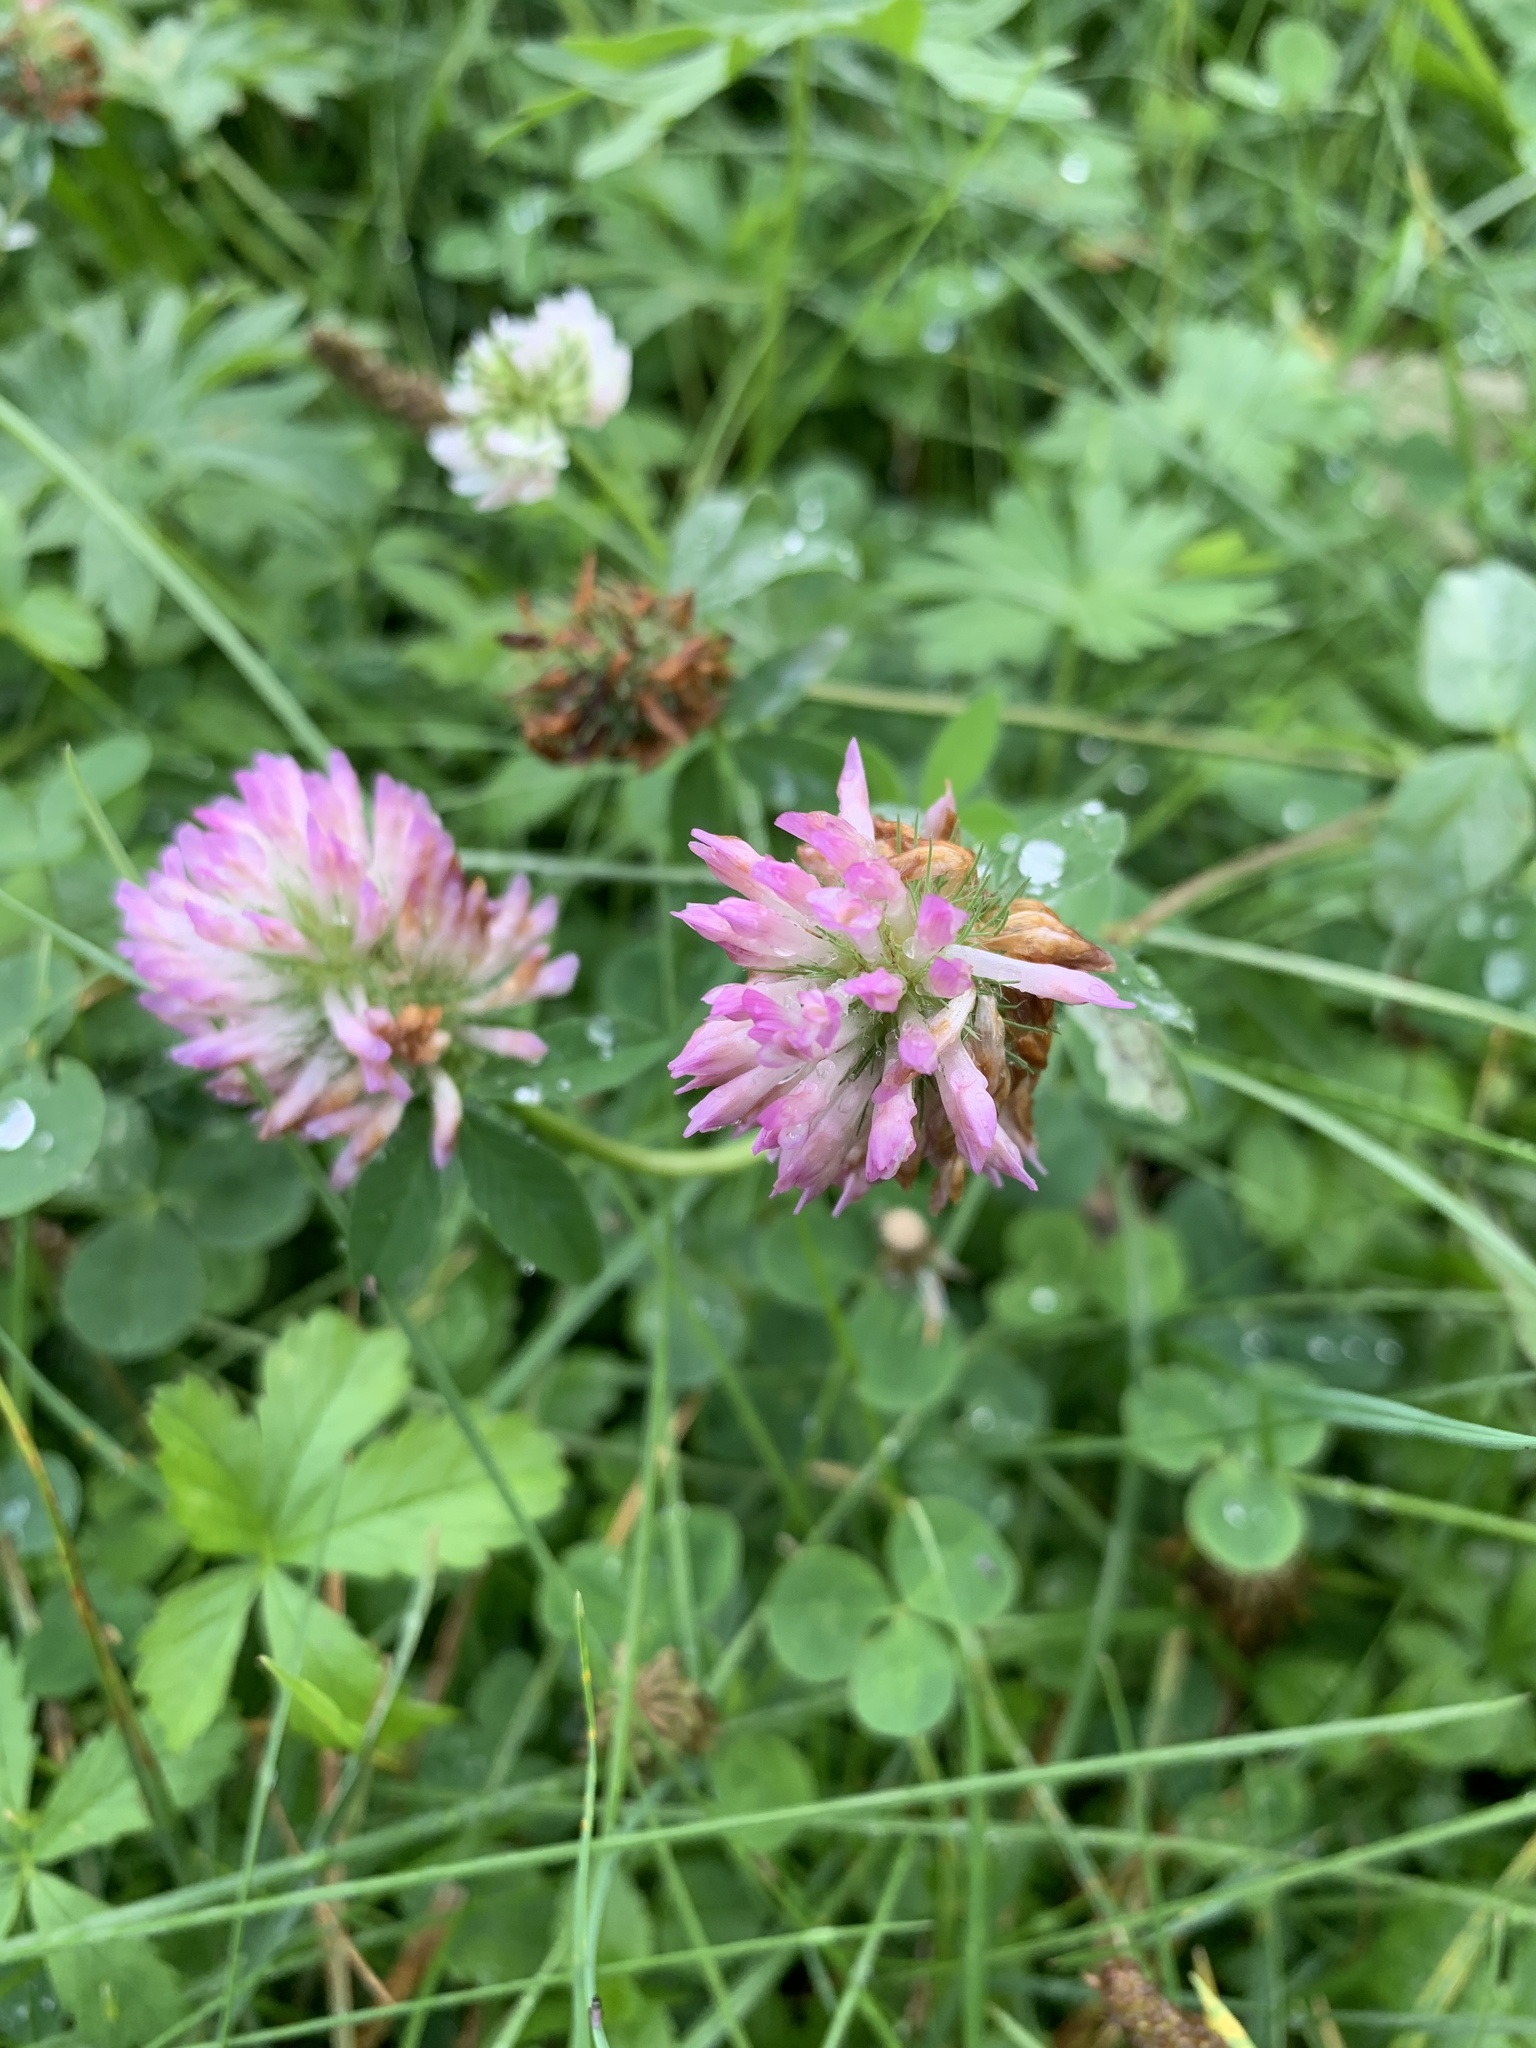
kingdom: Plantae
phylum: Tracheophyta
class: Magnoliopsida
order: Fabales
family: Fabaceae
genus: Trifolium
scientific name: Trifolium pratense
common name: Red clover
